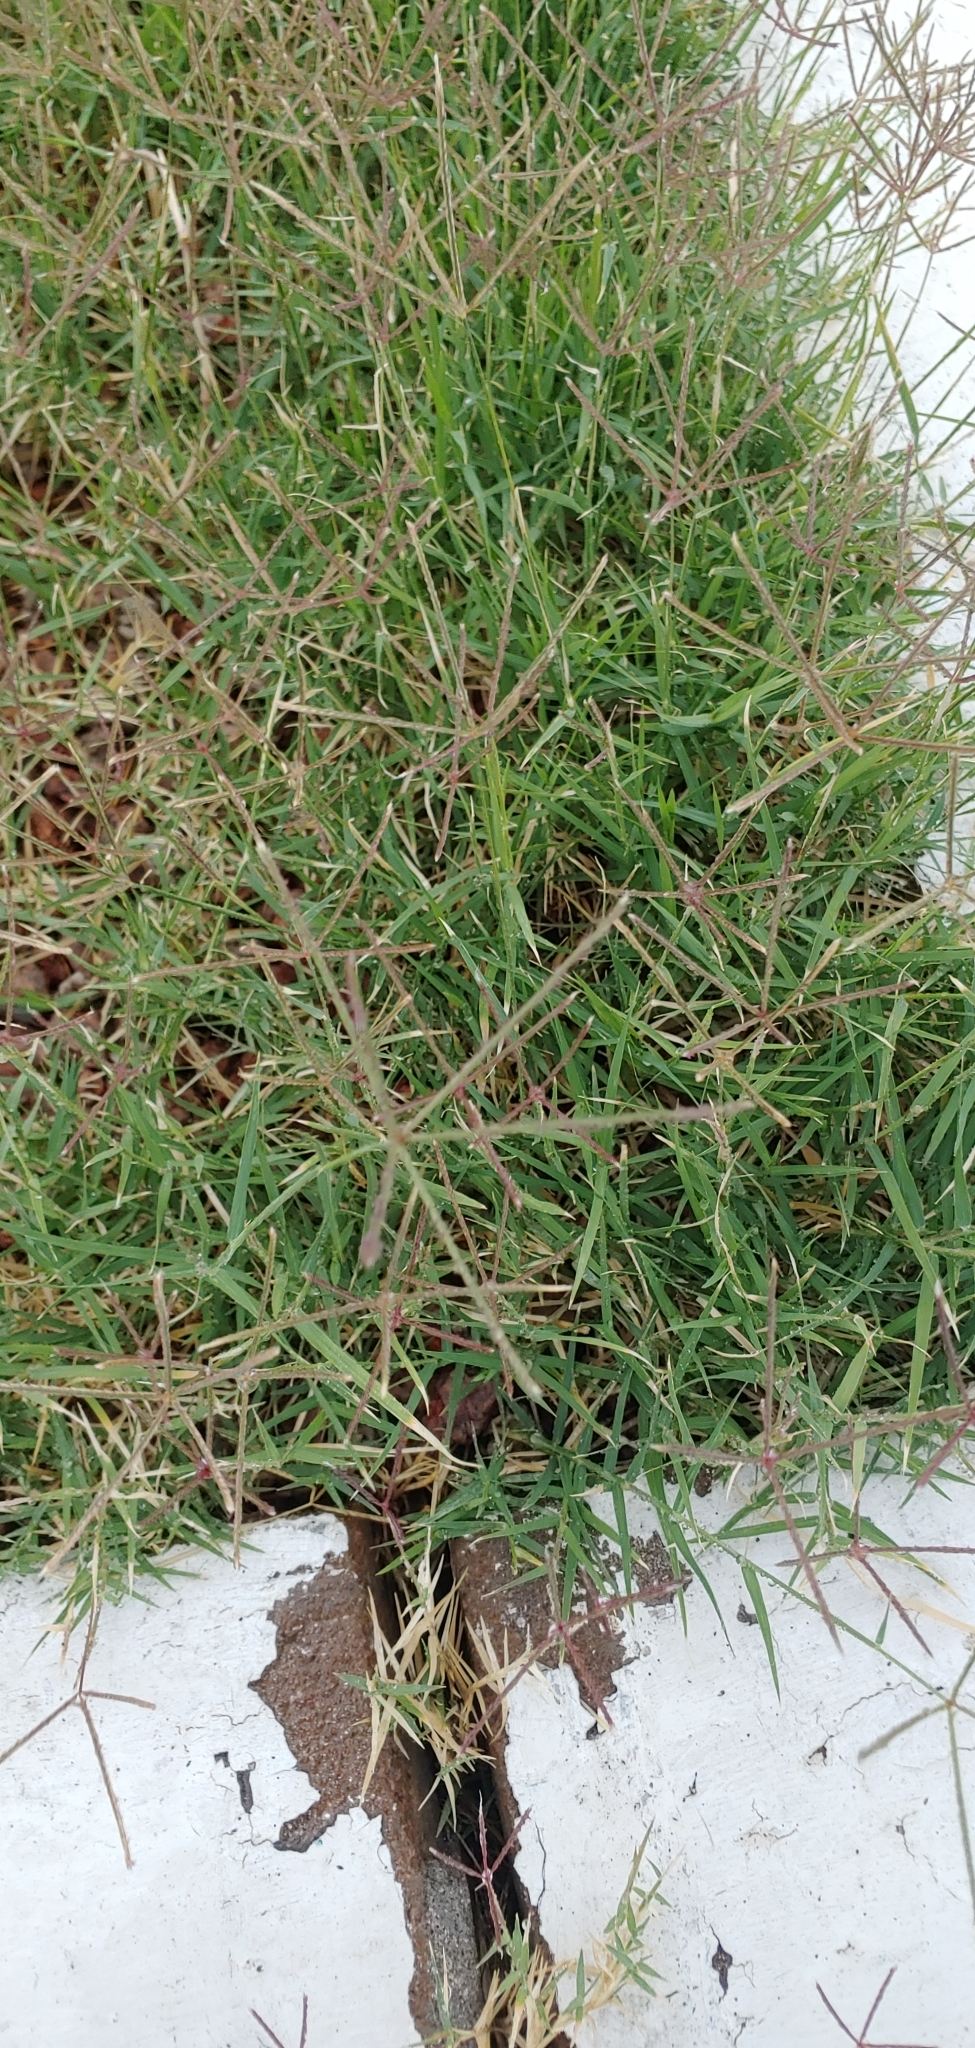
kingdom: Plantae
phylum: Tracheophyta
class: Liliopsida
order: Poales
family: Poaceae
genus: Cynodon
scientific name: Cynodon dactylon
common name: Bermuda grass
